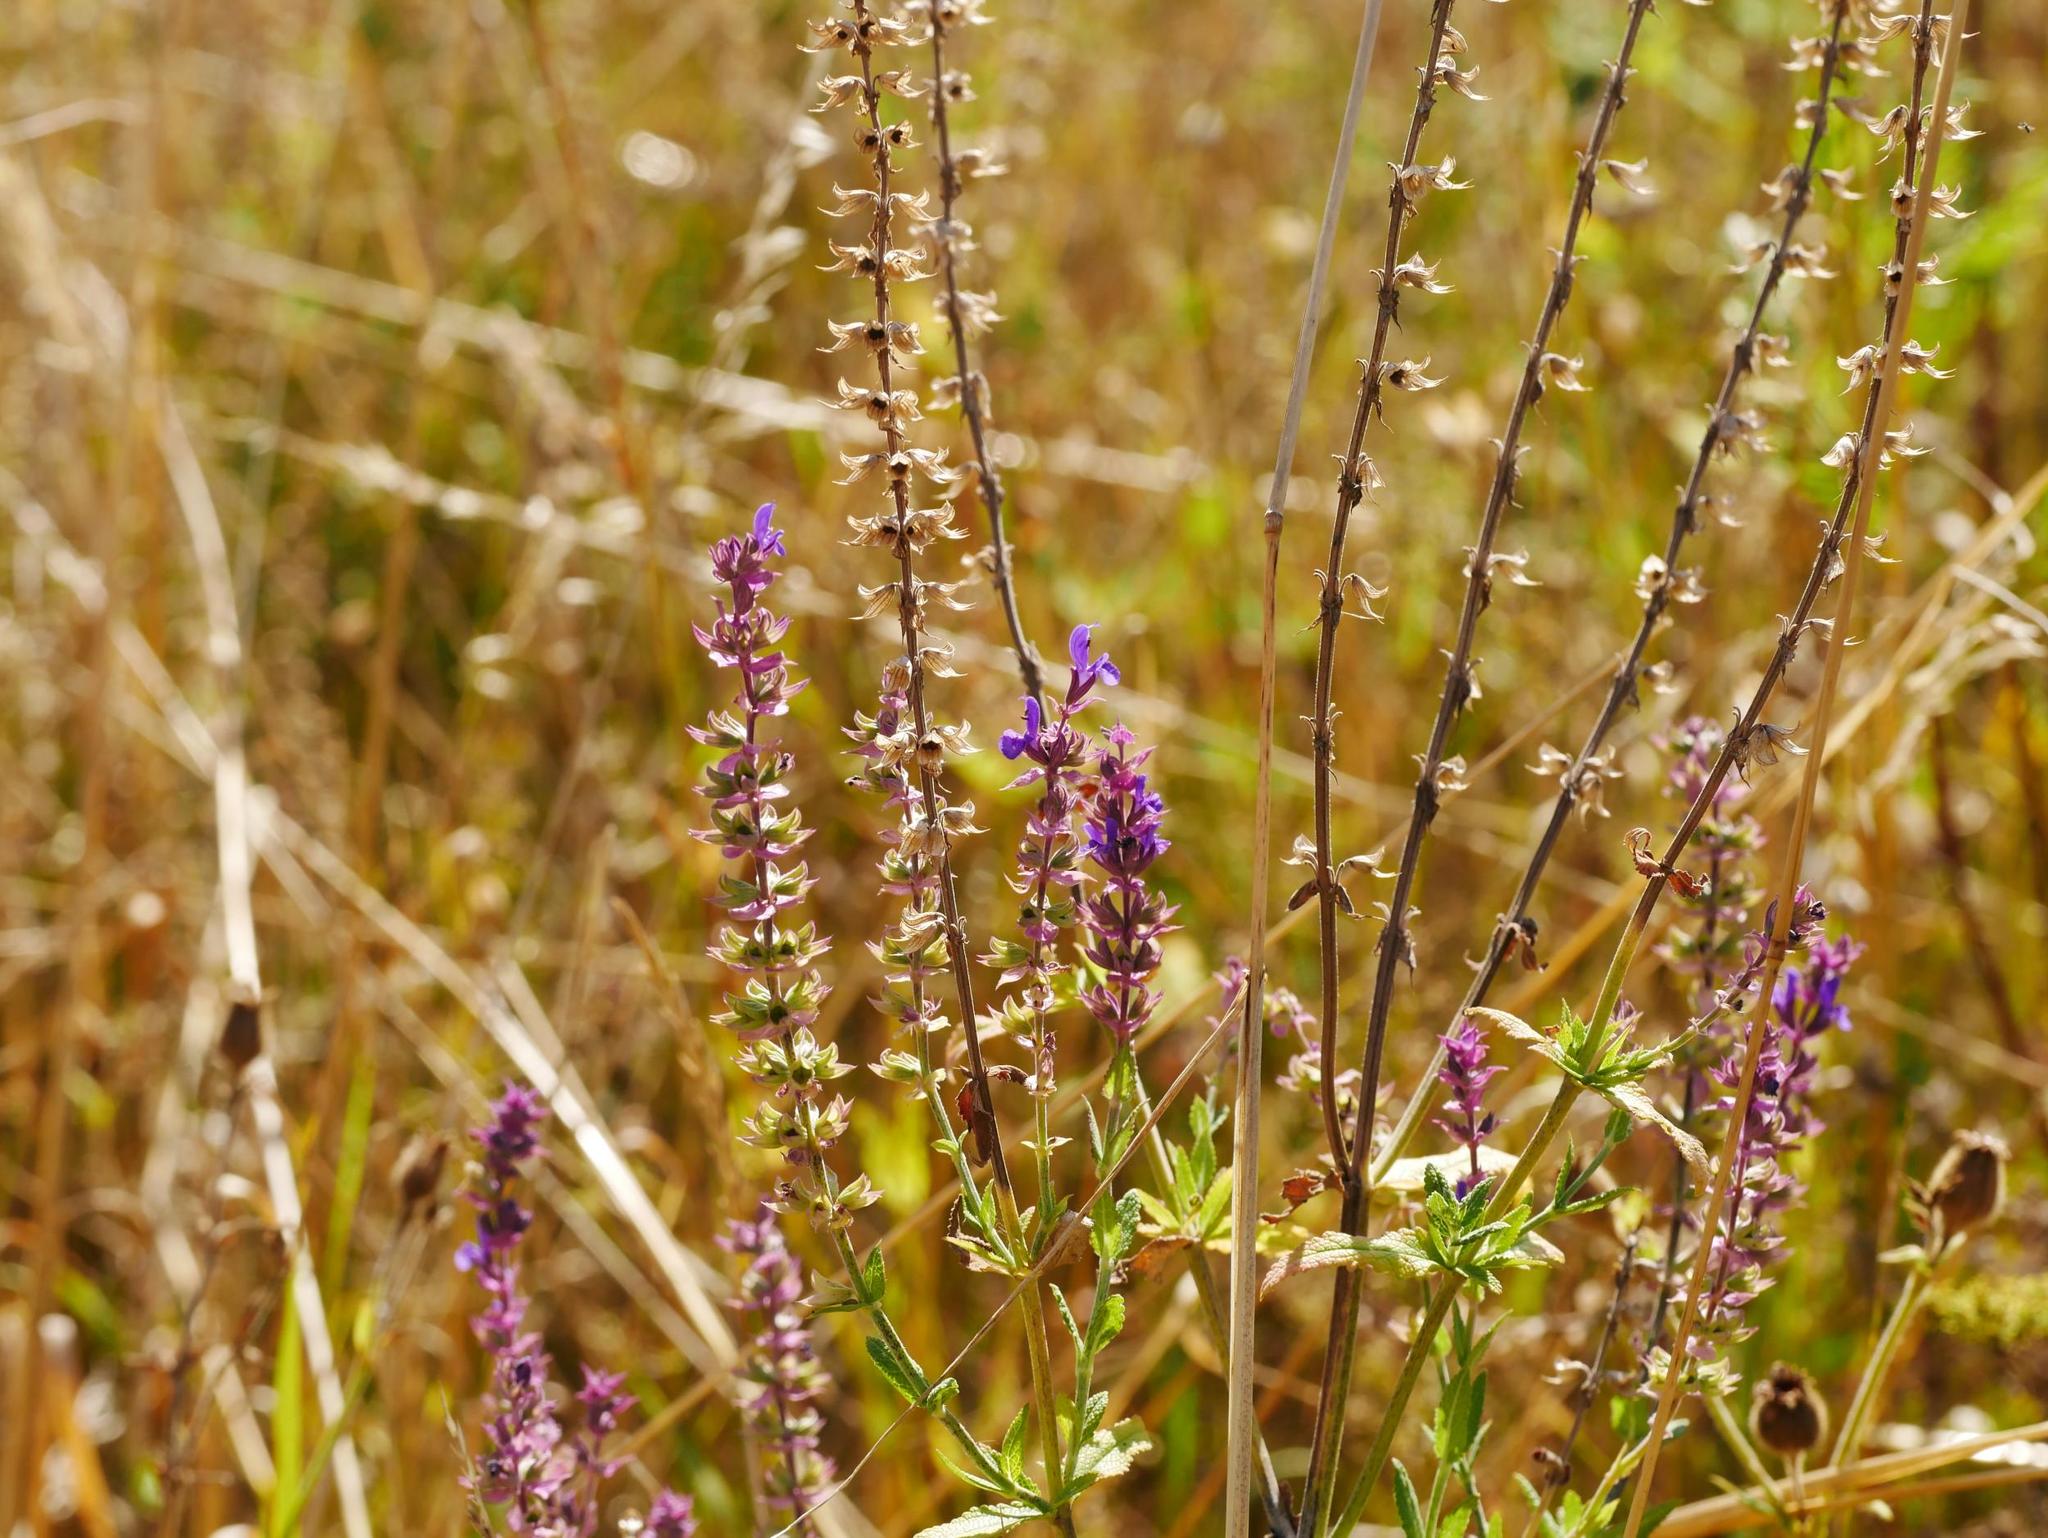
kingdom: Plantae
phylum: Tracheophyta
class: Magnoliopsida
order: Lamiales
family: Lamiaceae
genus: Salvia
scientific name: Salvia nemorosa
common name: Balkan clary
